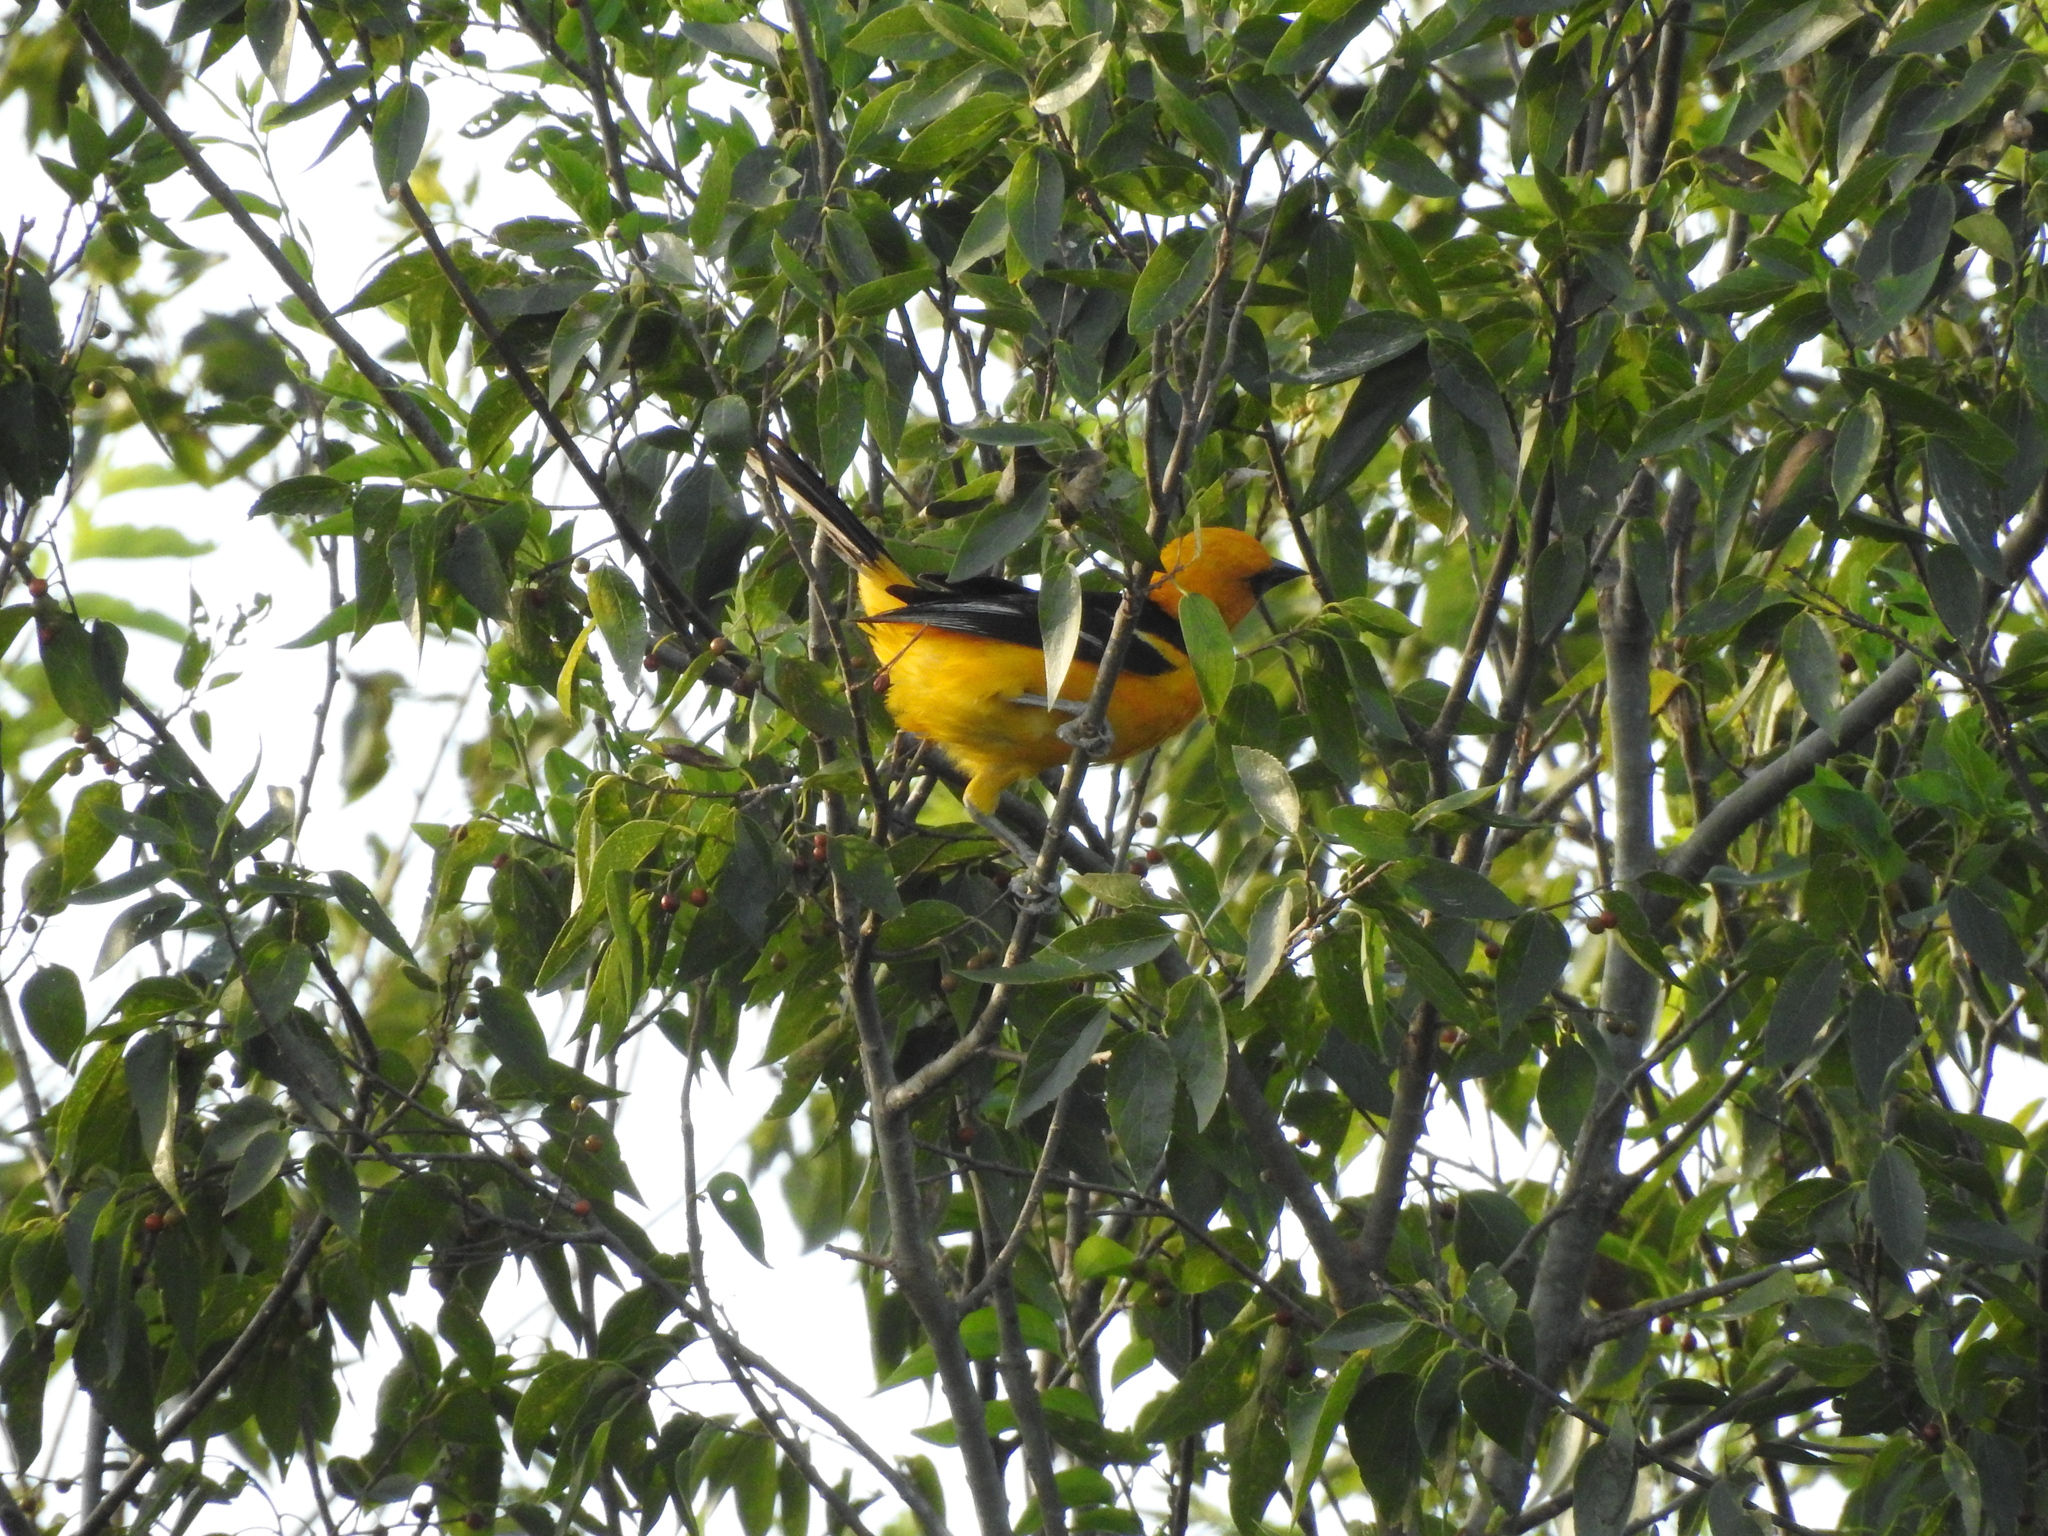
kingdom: Animalia
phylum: Chordata
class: Aves
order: Passeriformes
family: Icteridae
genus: Icterus
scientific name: Icterus gularis
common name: Altamira oriole
